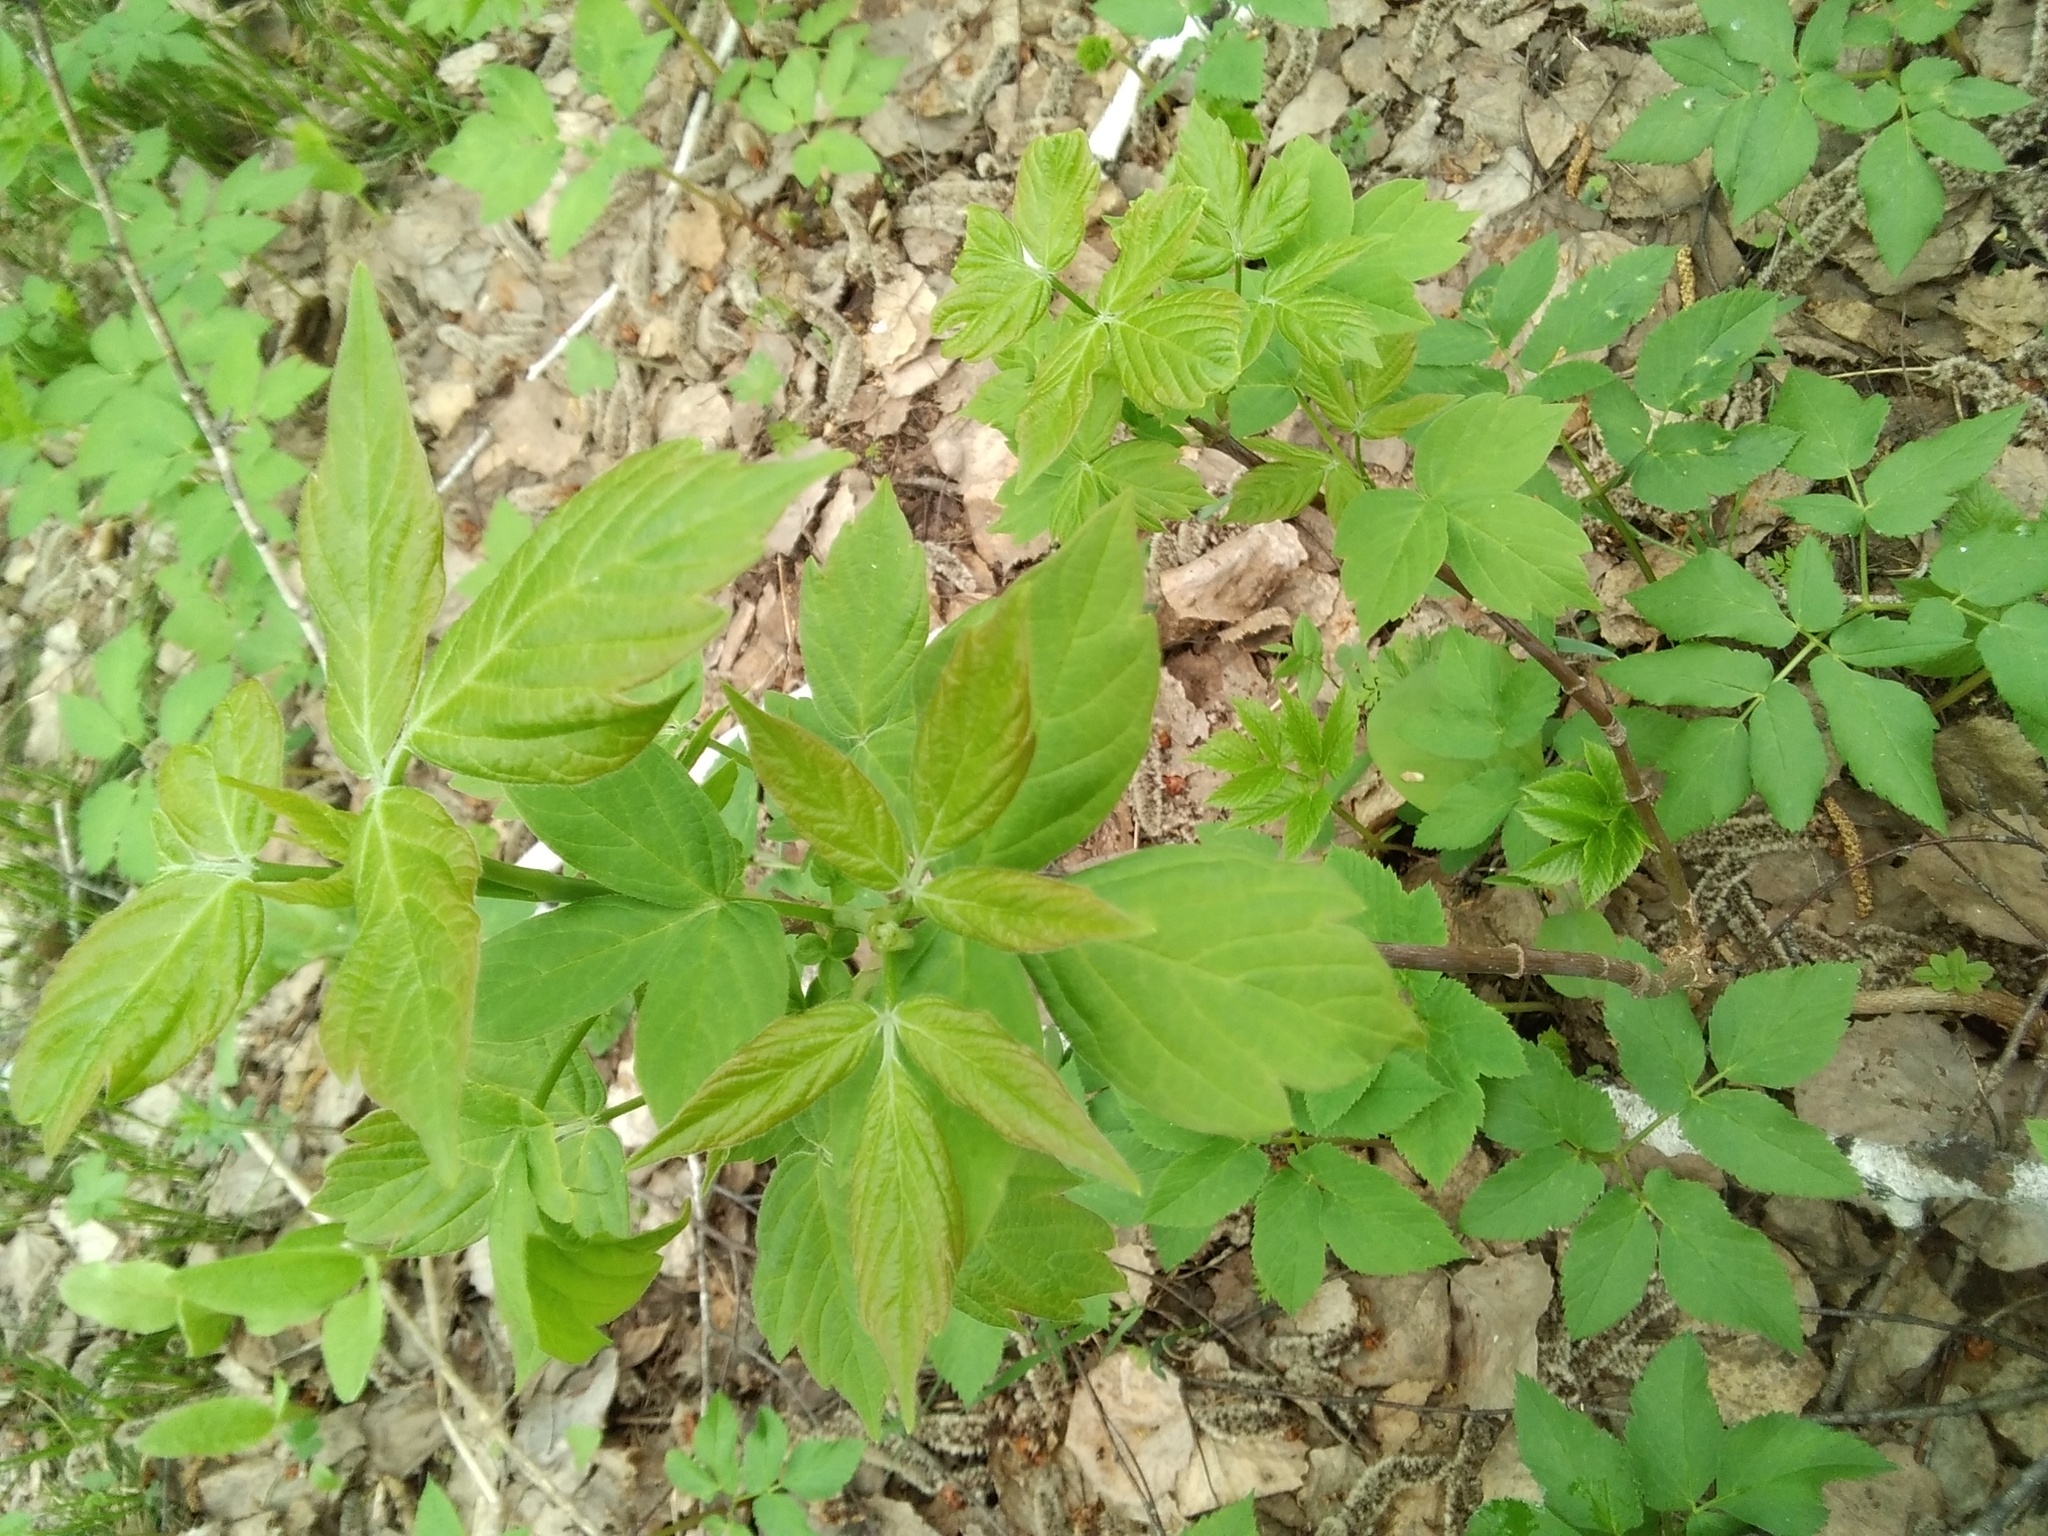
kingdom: Plantae
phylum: Tracheophyta
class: Magnoliopsida
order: Sapindales
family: Sapindaceae
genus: Acer
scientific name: Acer negundo
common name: Ashleaf maple
